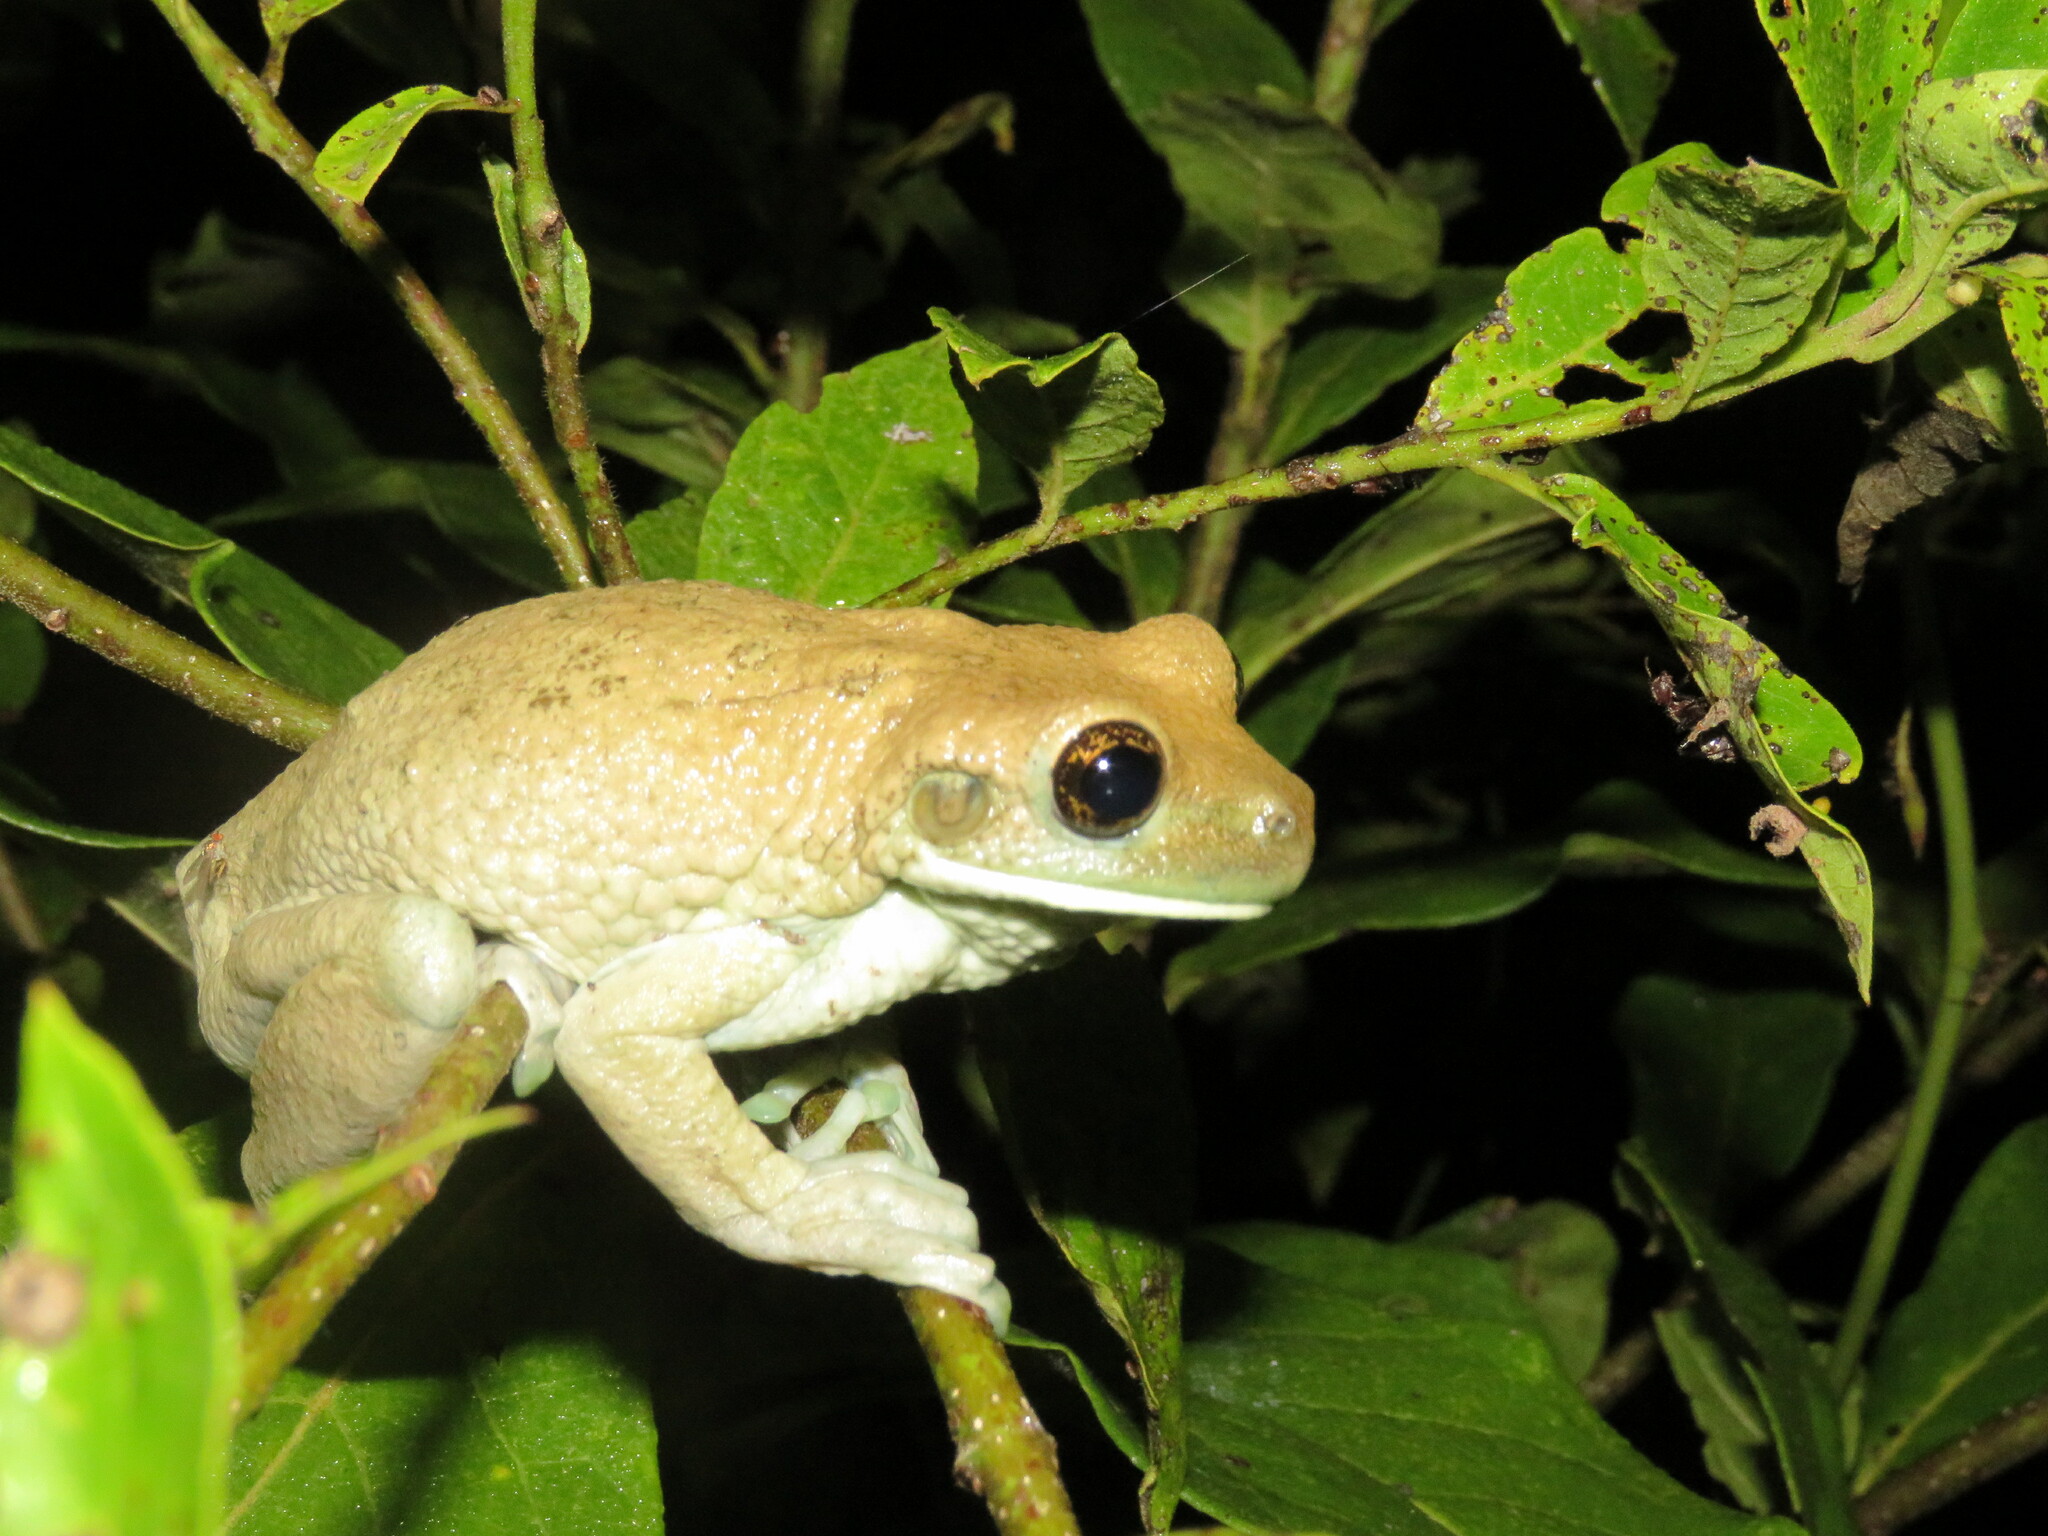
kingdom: Animalia
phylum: Chordata
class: Amphibia
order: Anura
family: Hylidae
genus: Trachycephalus
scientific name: Trachycephalus typhonius
